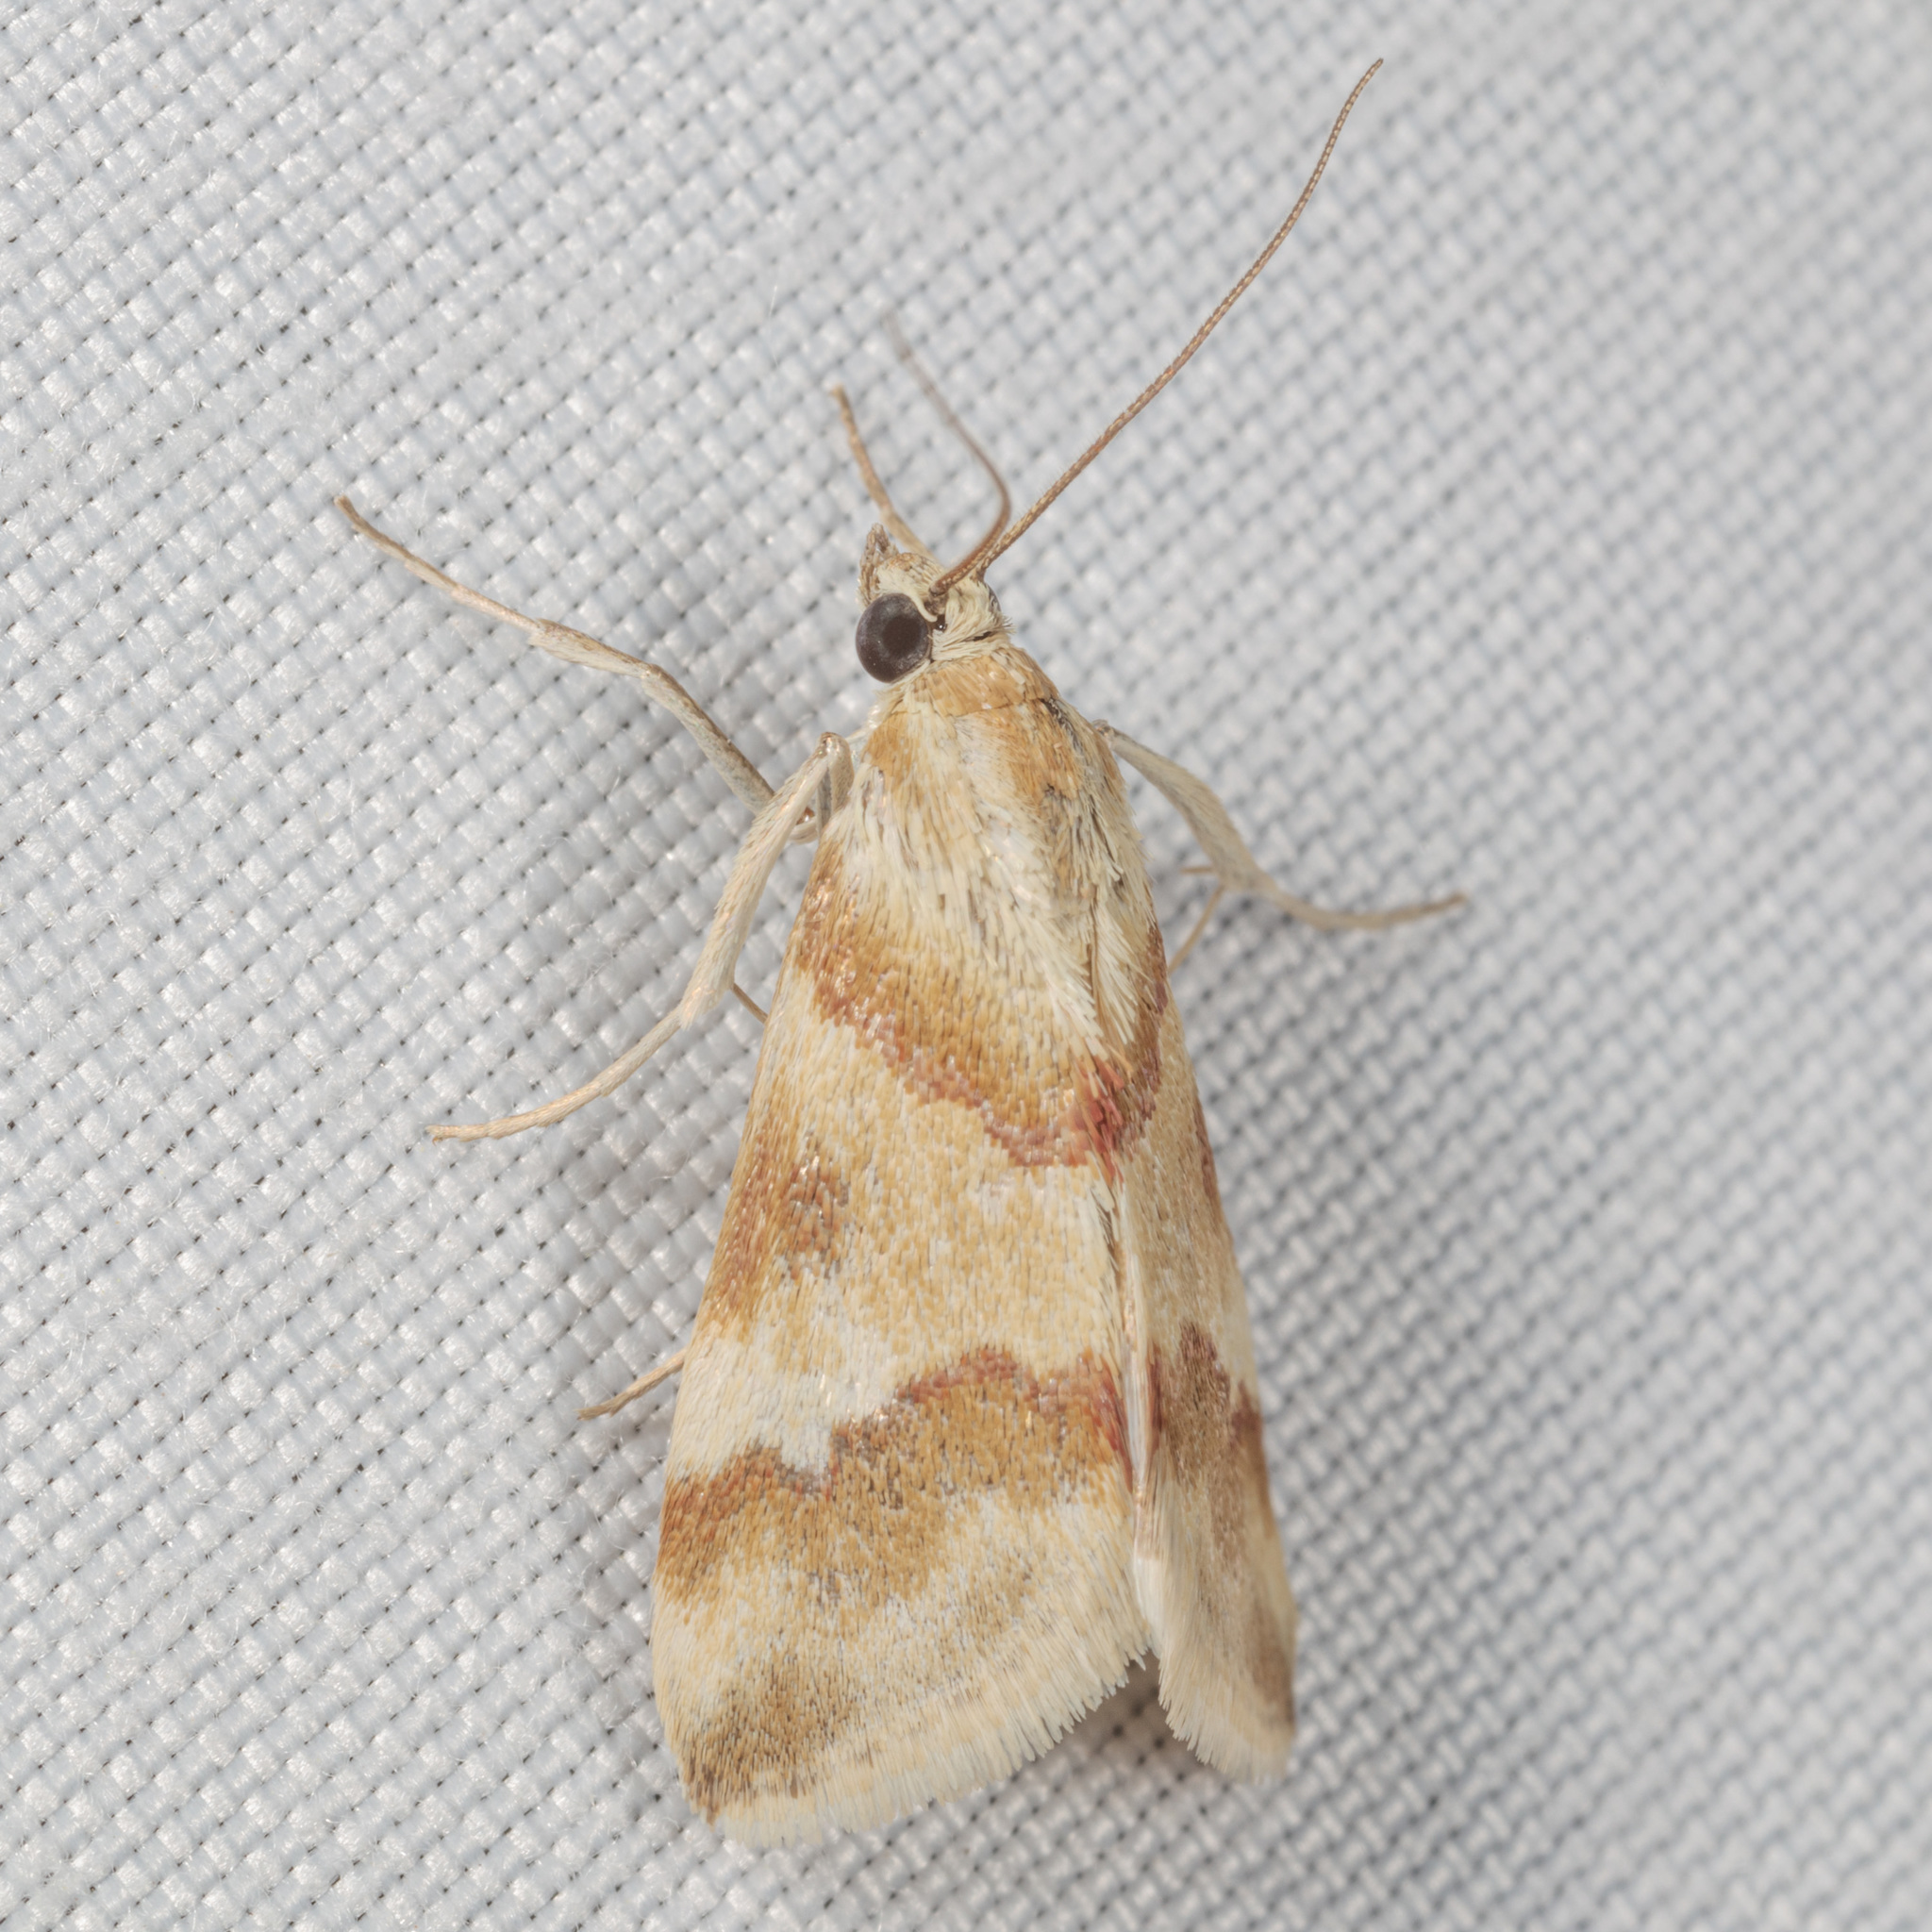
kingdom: Animalia
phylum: Arthropoda
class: Insecta
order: Lepidoptera
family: Crambidae
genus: Noctuelia
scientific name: Noctuelia Mimoschinia rufofascialis
